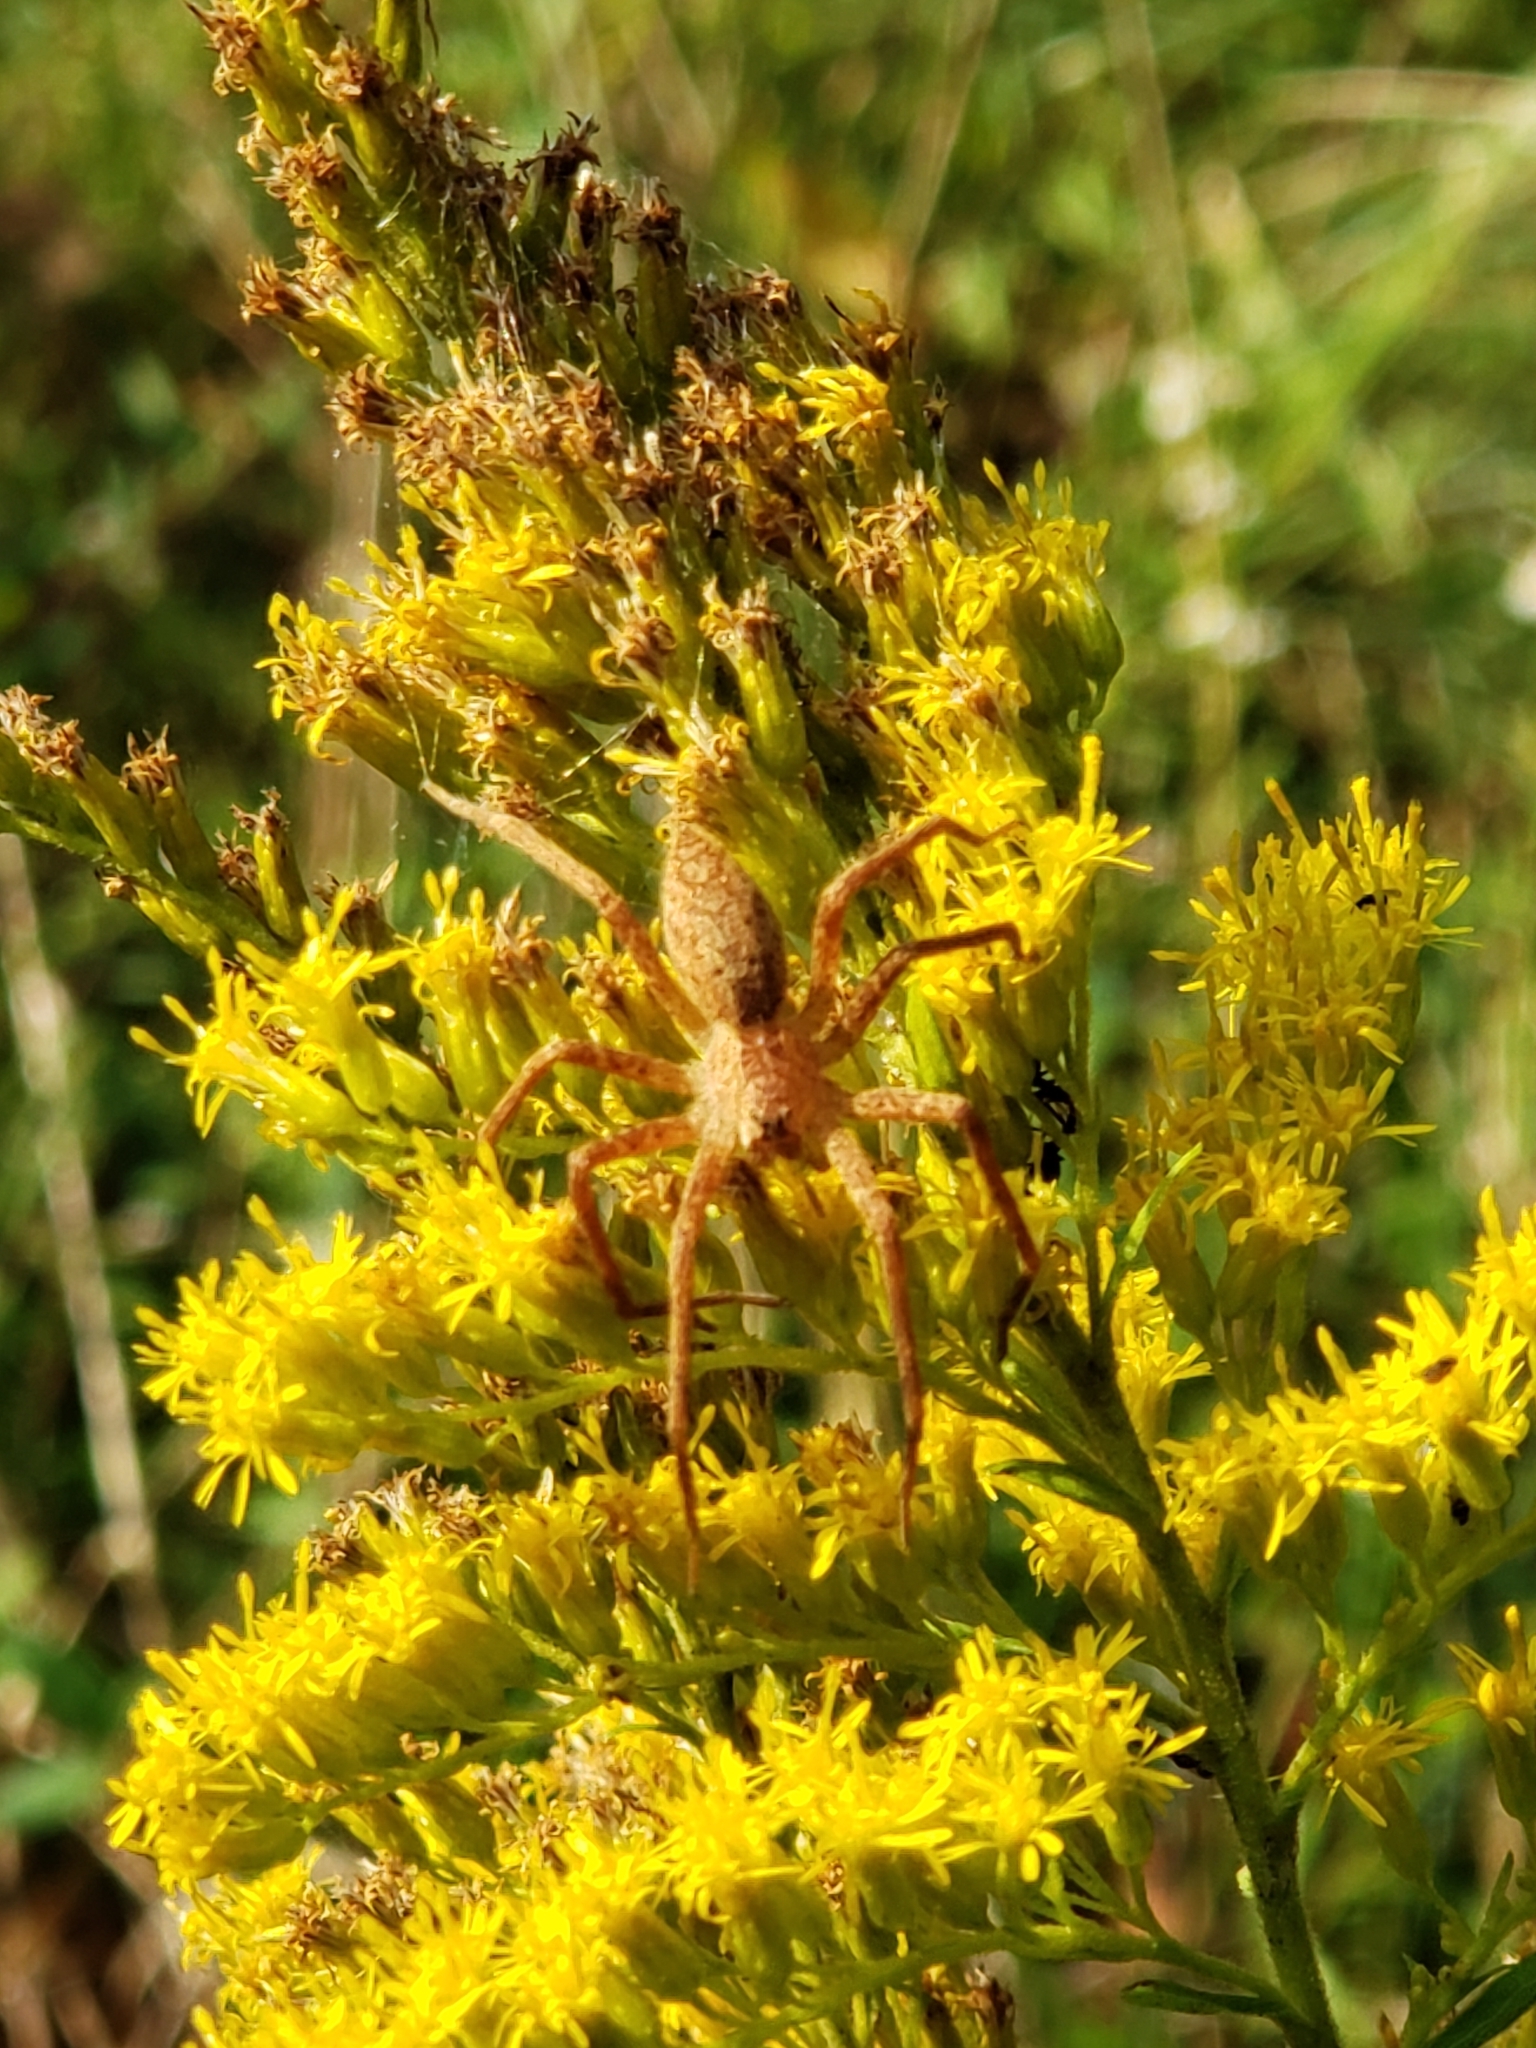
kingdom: Animalia
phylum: Arthropoda
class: Arachnida
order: Araneae
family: Pisauridae
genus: Pisaurina
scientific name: Pisaurina mira
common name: American nursery web spider
